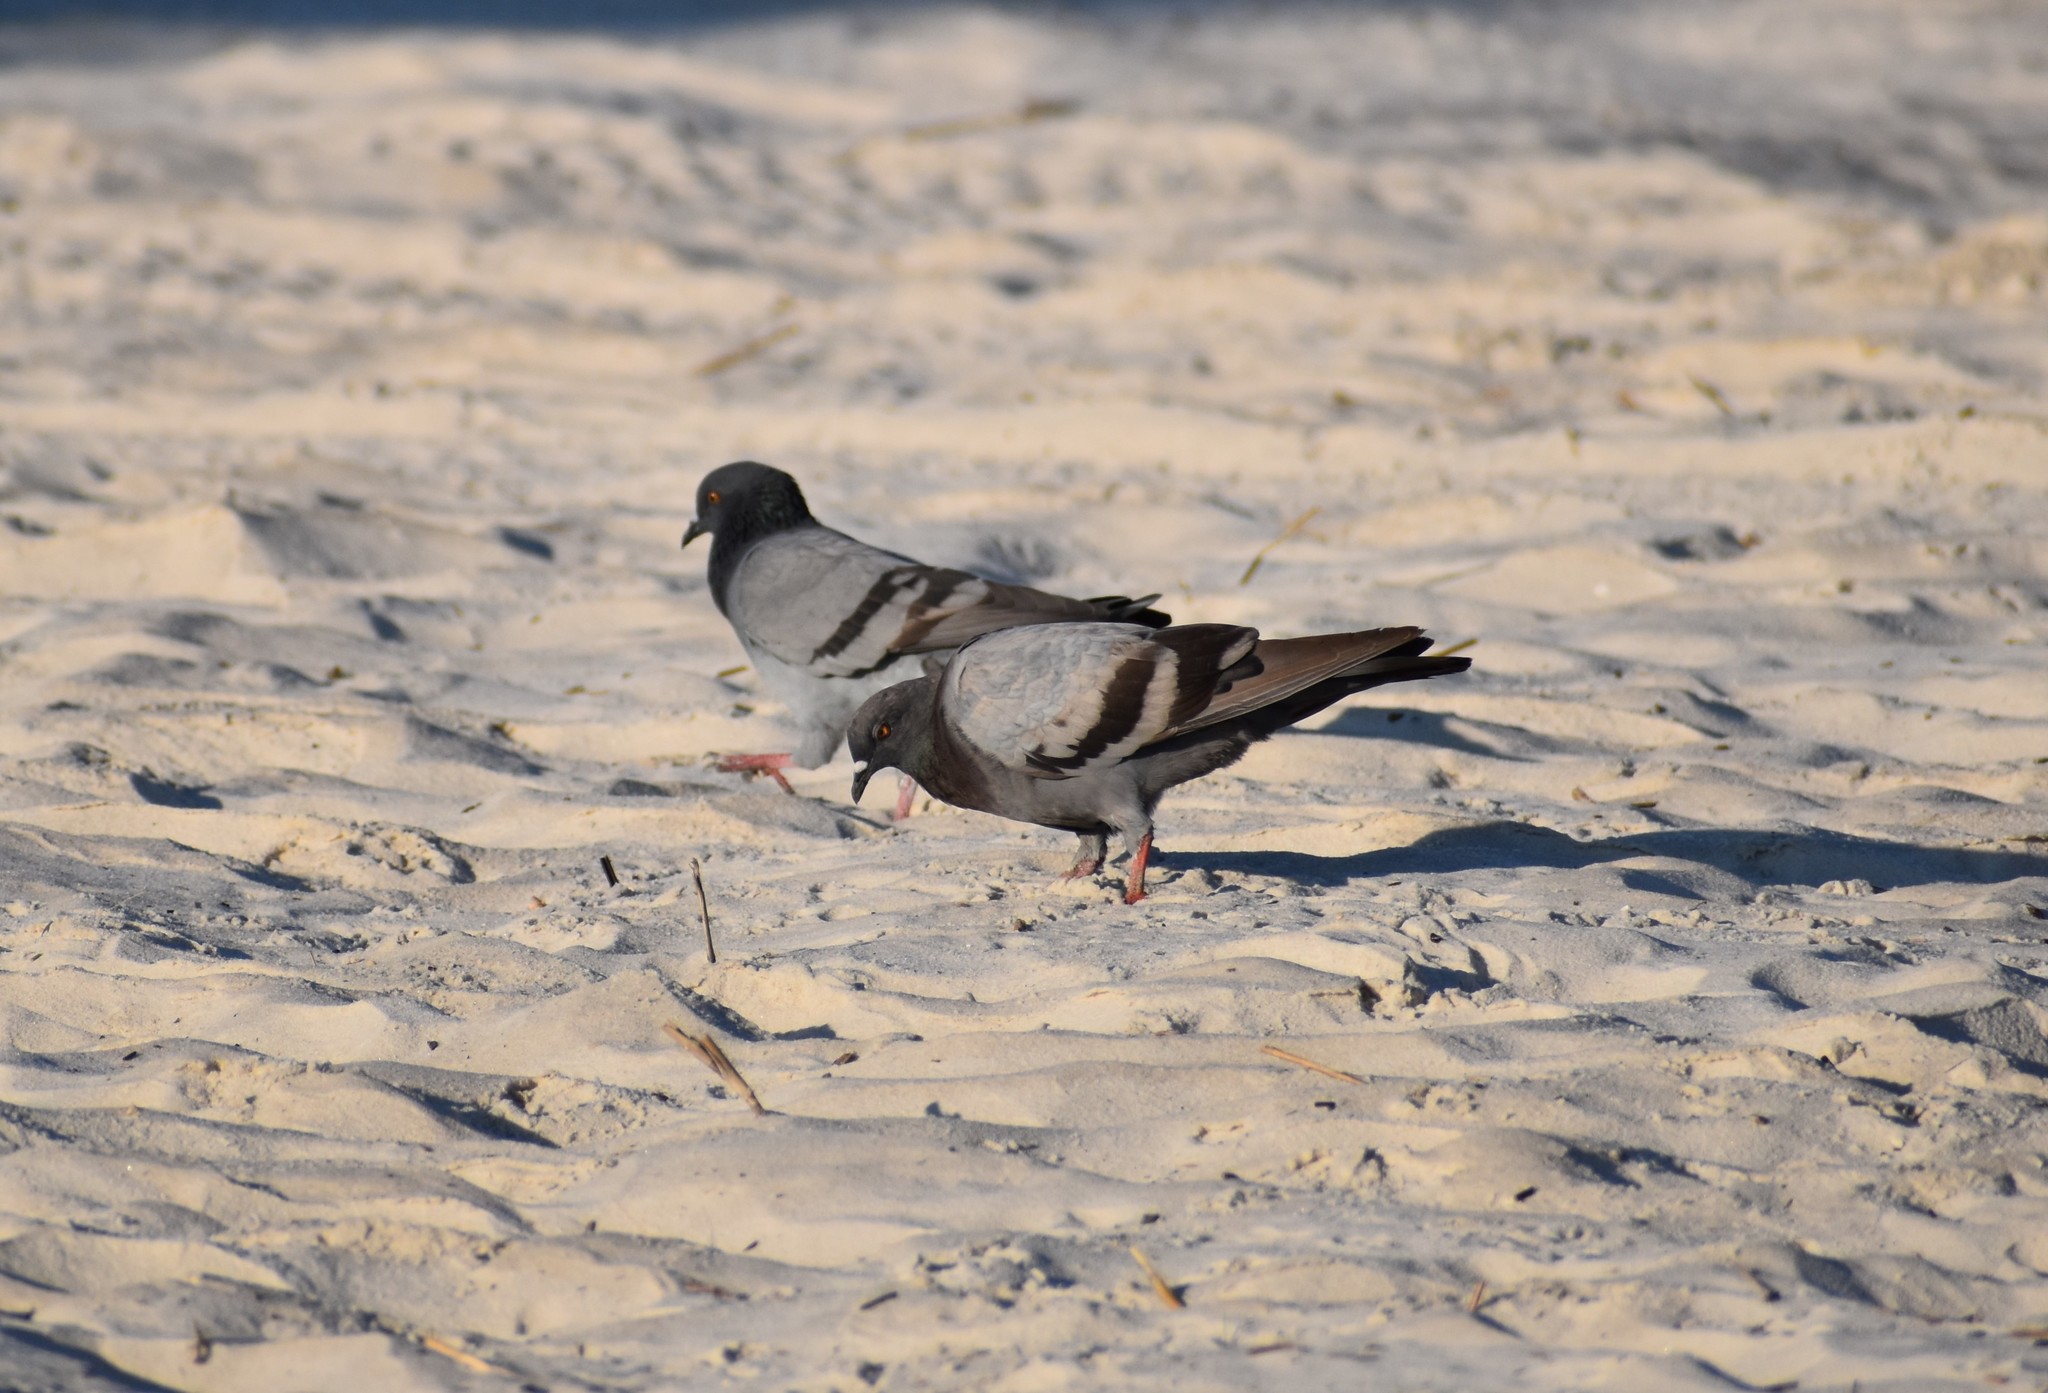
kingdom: Animalia
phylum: Chordata
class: Aves
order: Columbiformes
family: Columbidae
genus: Columba
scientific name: Columba livia
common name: Rock pigeon
